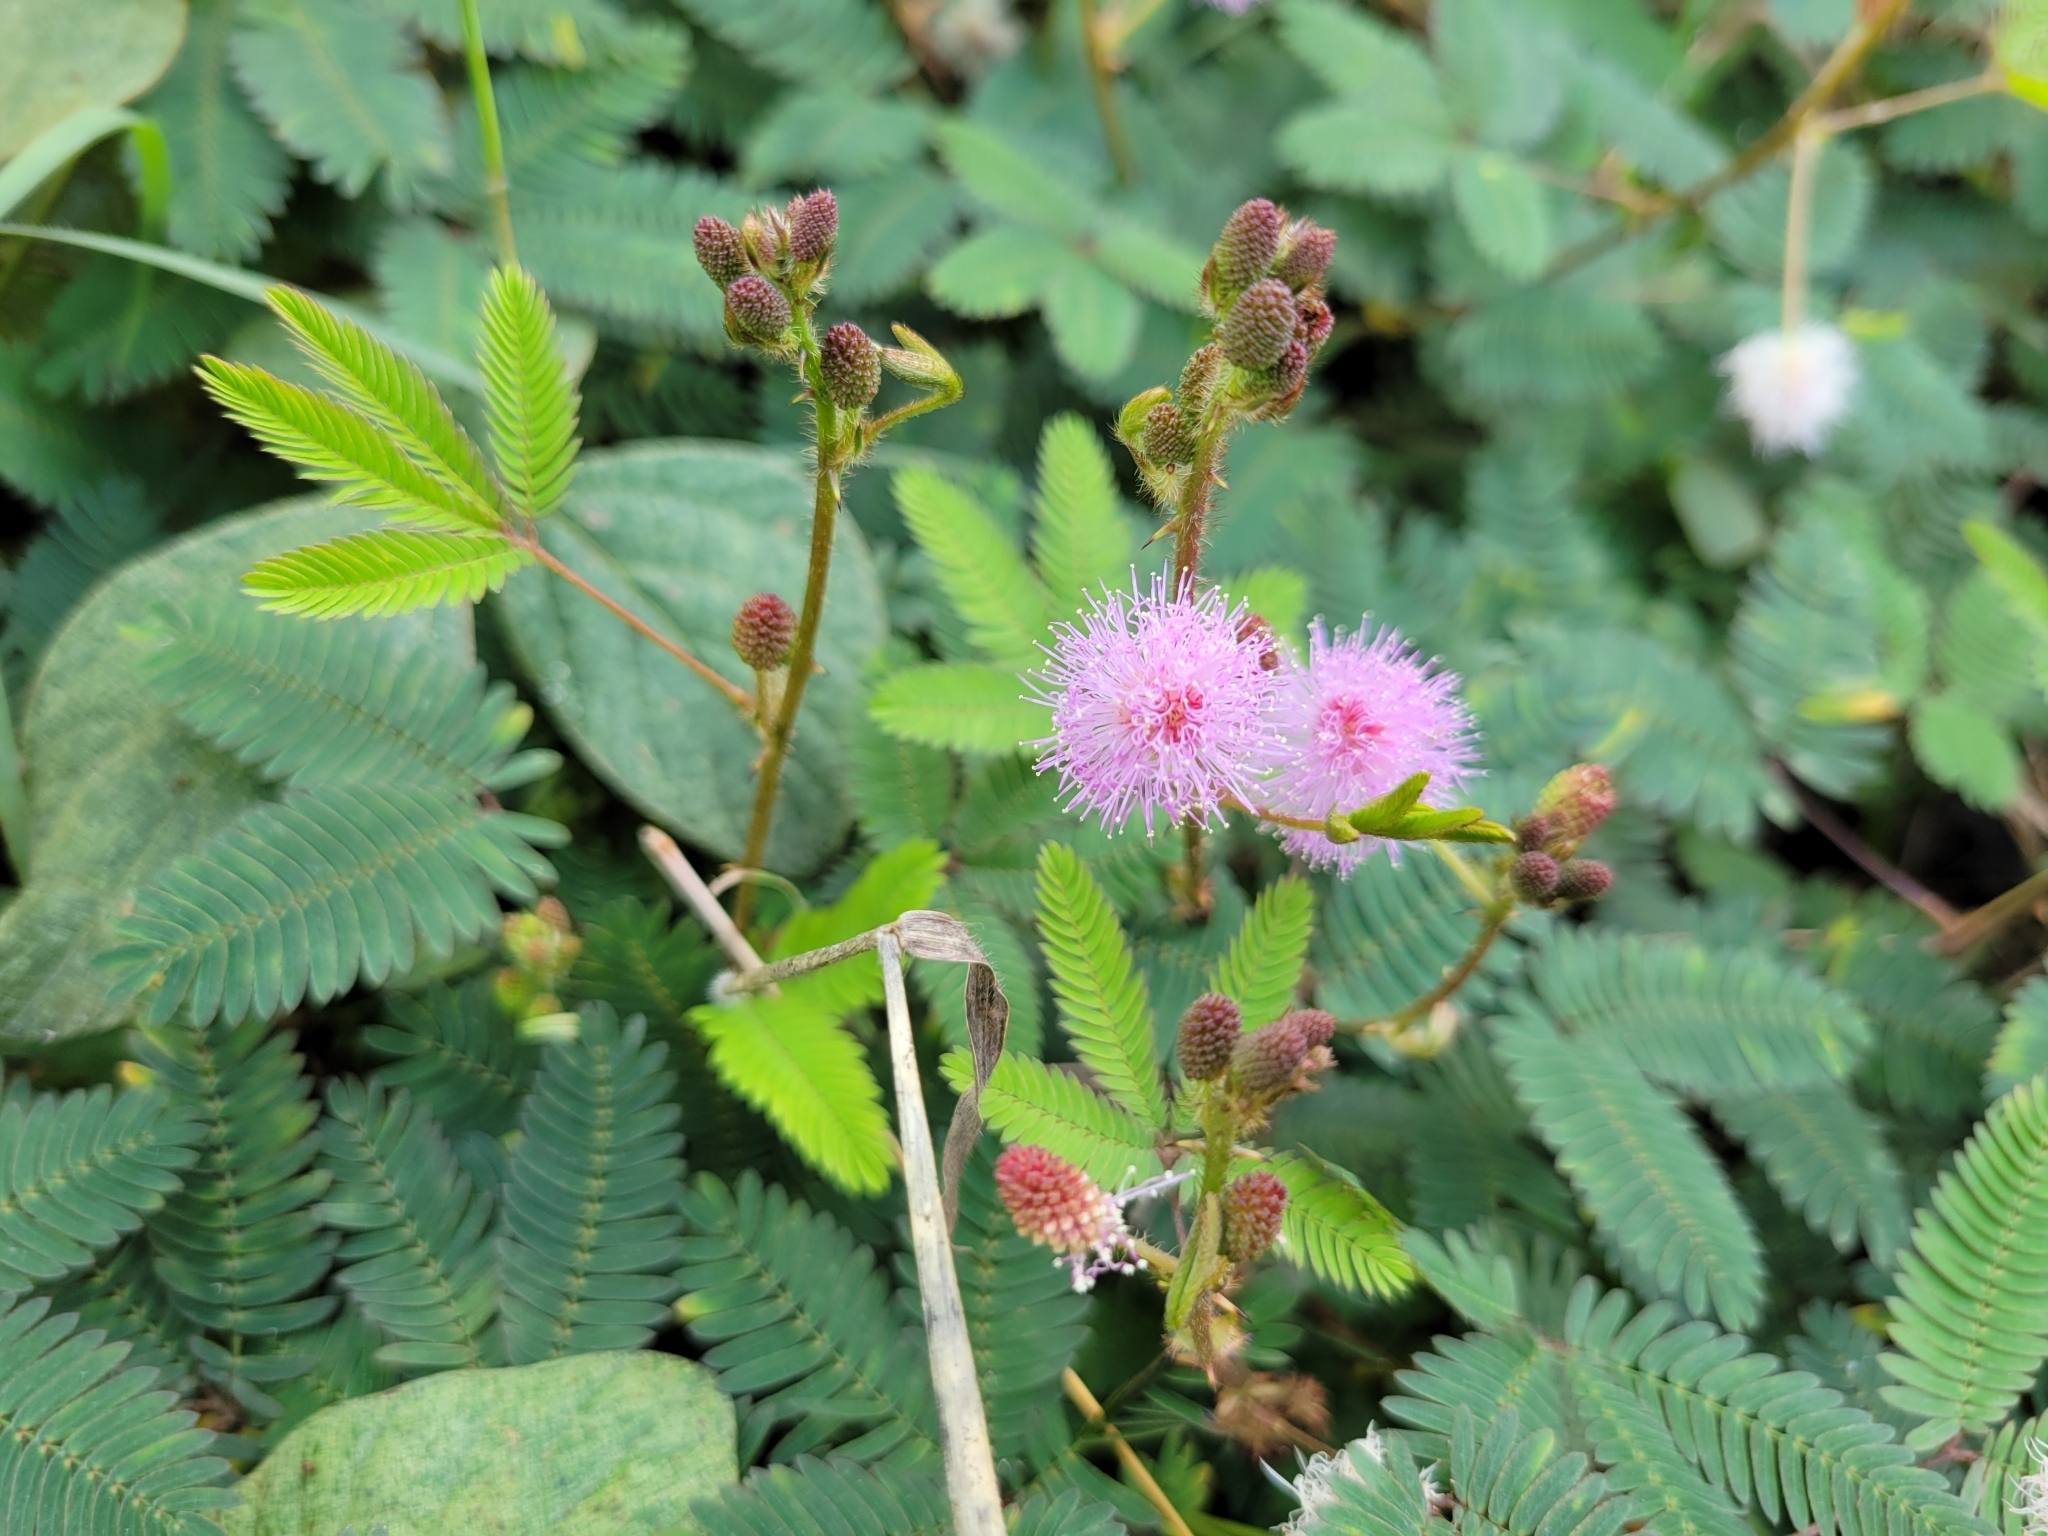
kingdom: Plantae
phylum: Tracheophyta
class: Magnoliopsida
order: Fabales
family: Fabaceae
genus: Mimosa
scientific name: Mimosa pudica
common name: Sensitive plant
